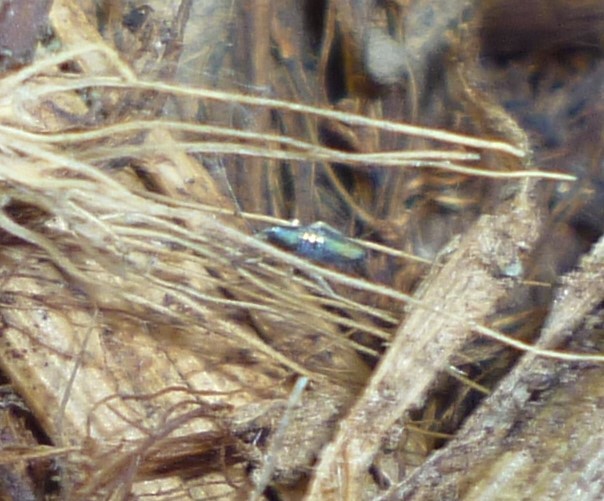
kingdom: Animalia
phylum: Arthropoda
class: Collembola
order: Entomobryomorpha
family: Entomobryidae
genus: Lepidocyrtus
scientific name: Lepidocyrtus paradoxus
